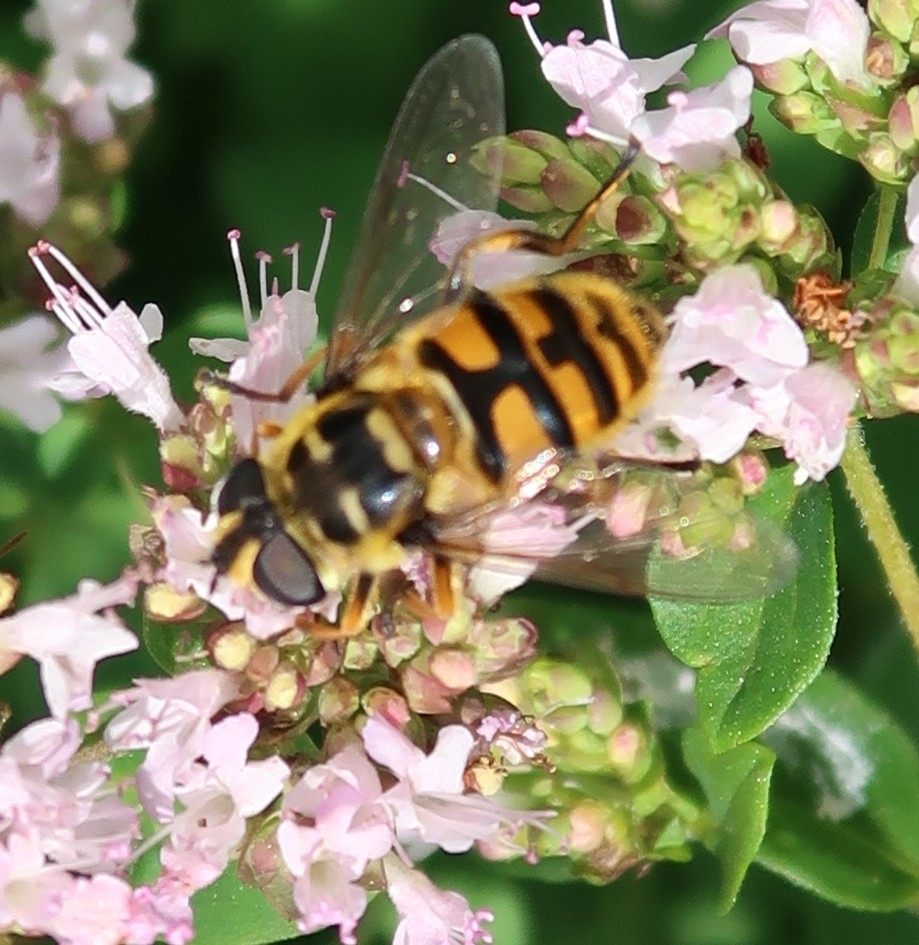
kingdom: Animalia
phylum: Arthropoda
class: Insecta
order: Diptera
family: Syrphidae
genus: Myathropa
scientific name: Myathropa florea
